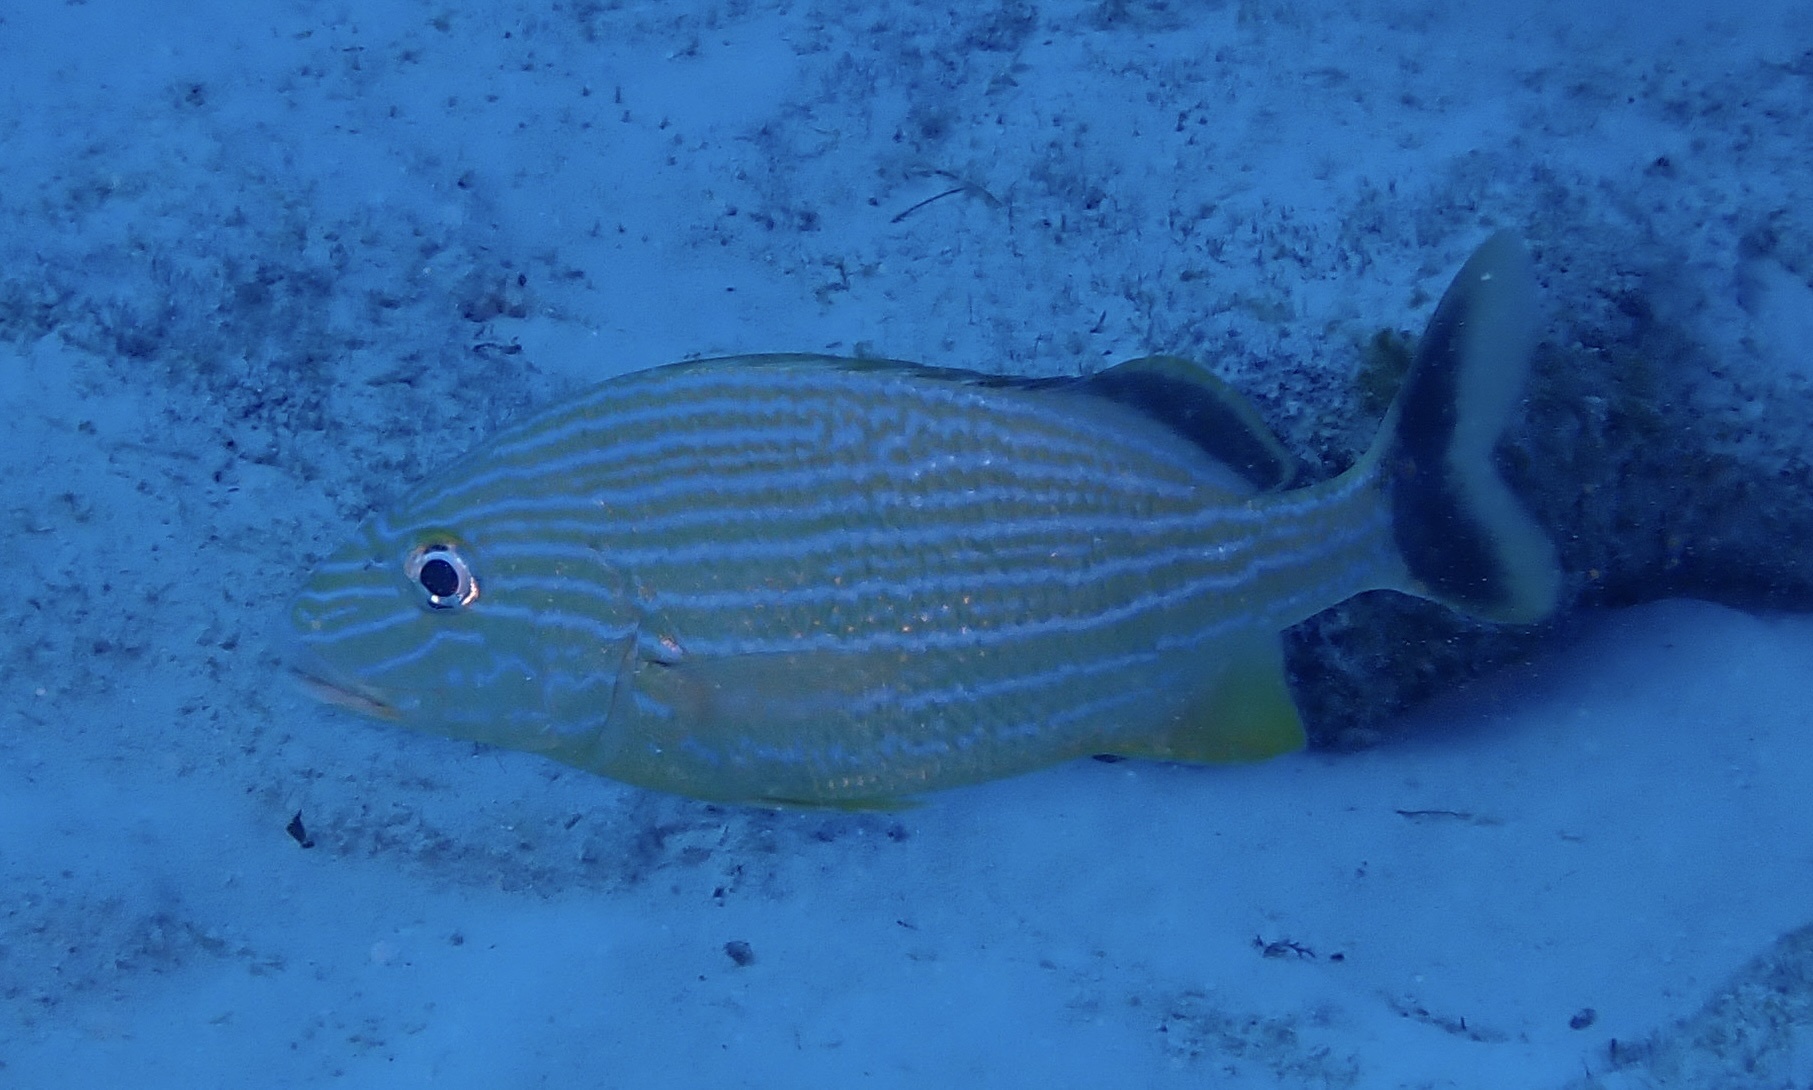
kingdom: Animalia
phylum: Chordata
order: Perciformes
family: Haemulidae
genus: Haemulon
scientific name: Haemulon sciurus
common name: Bluestriped grunt
